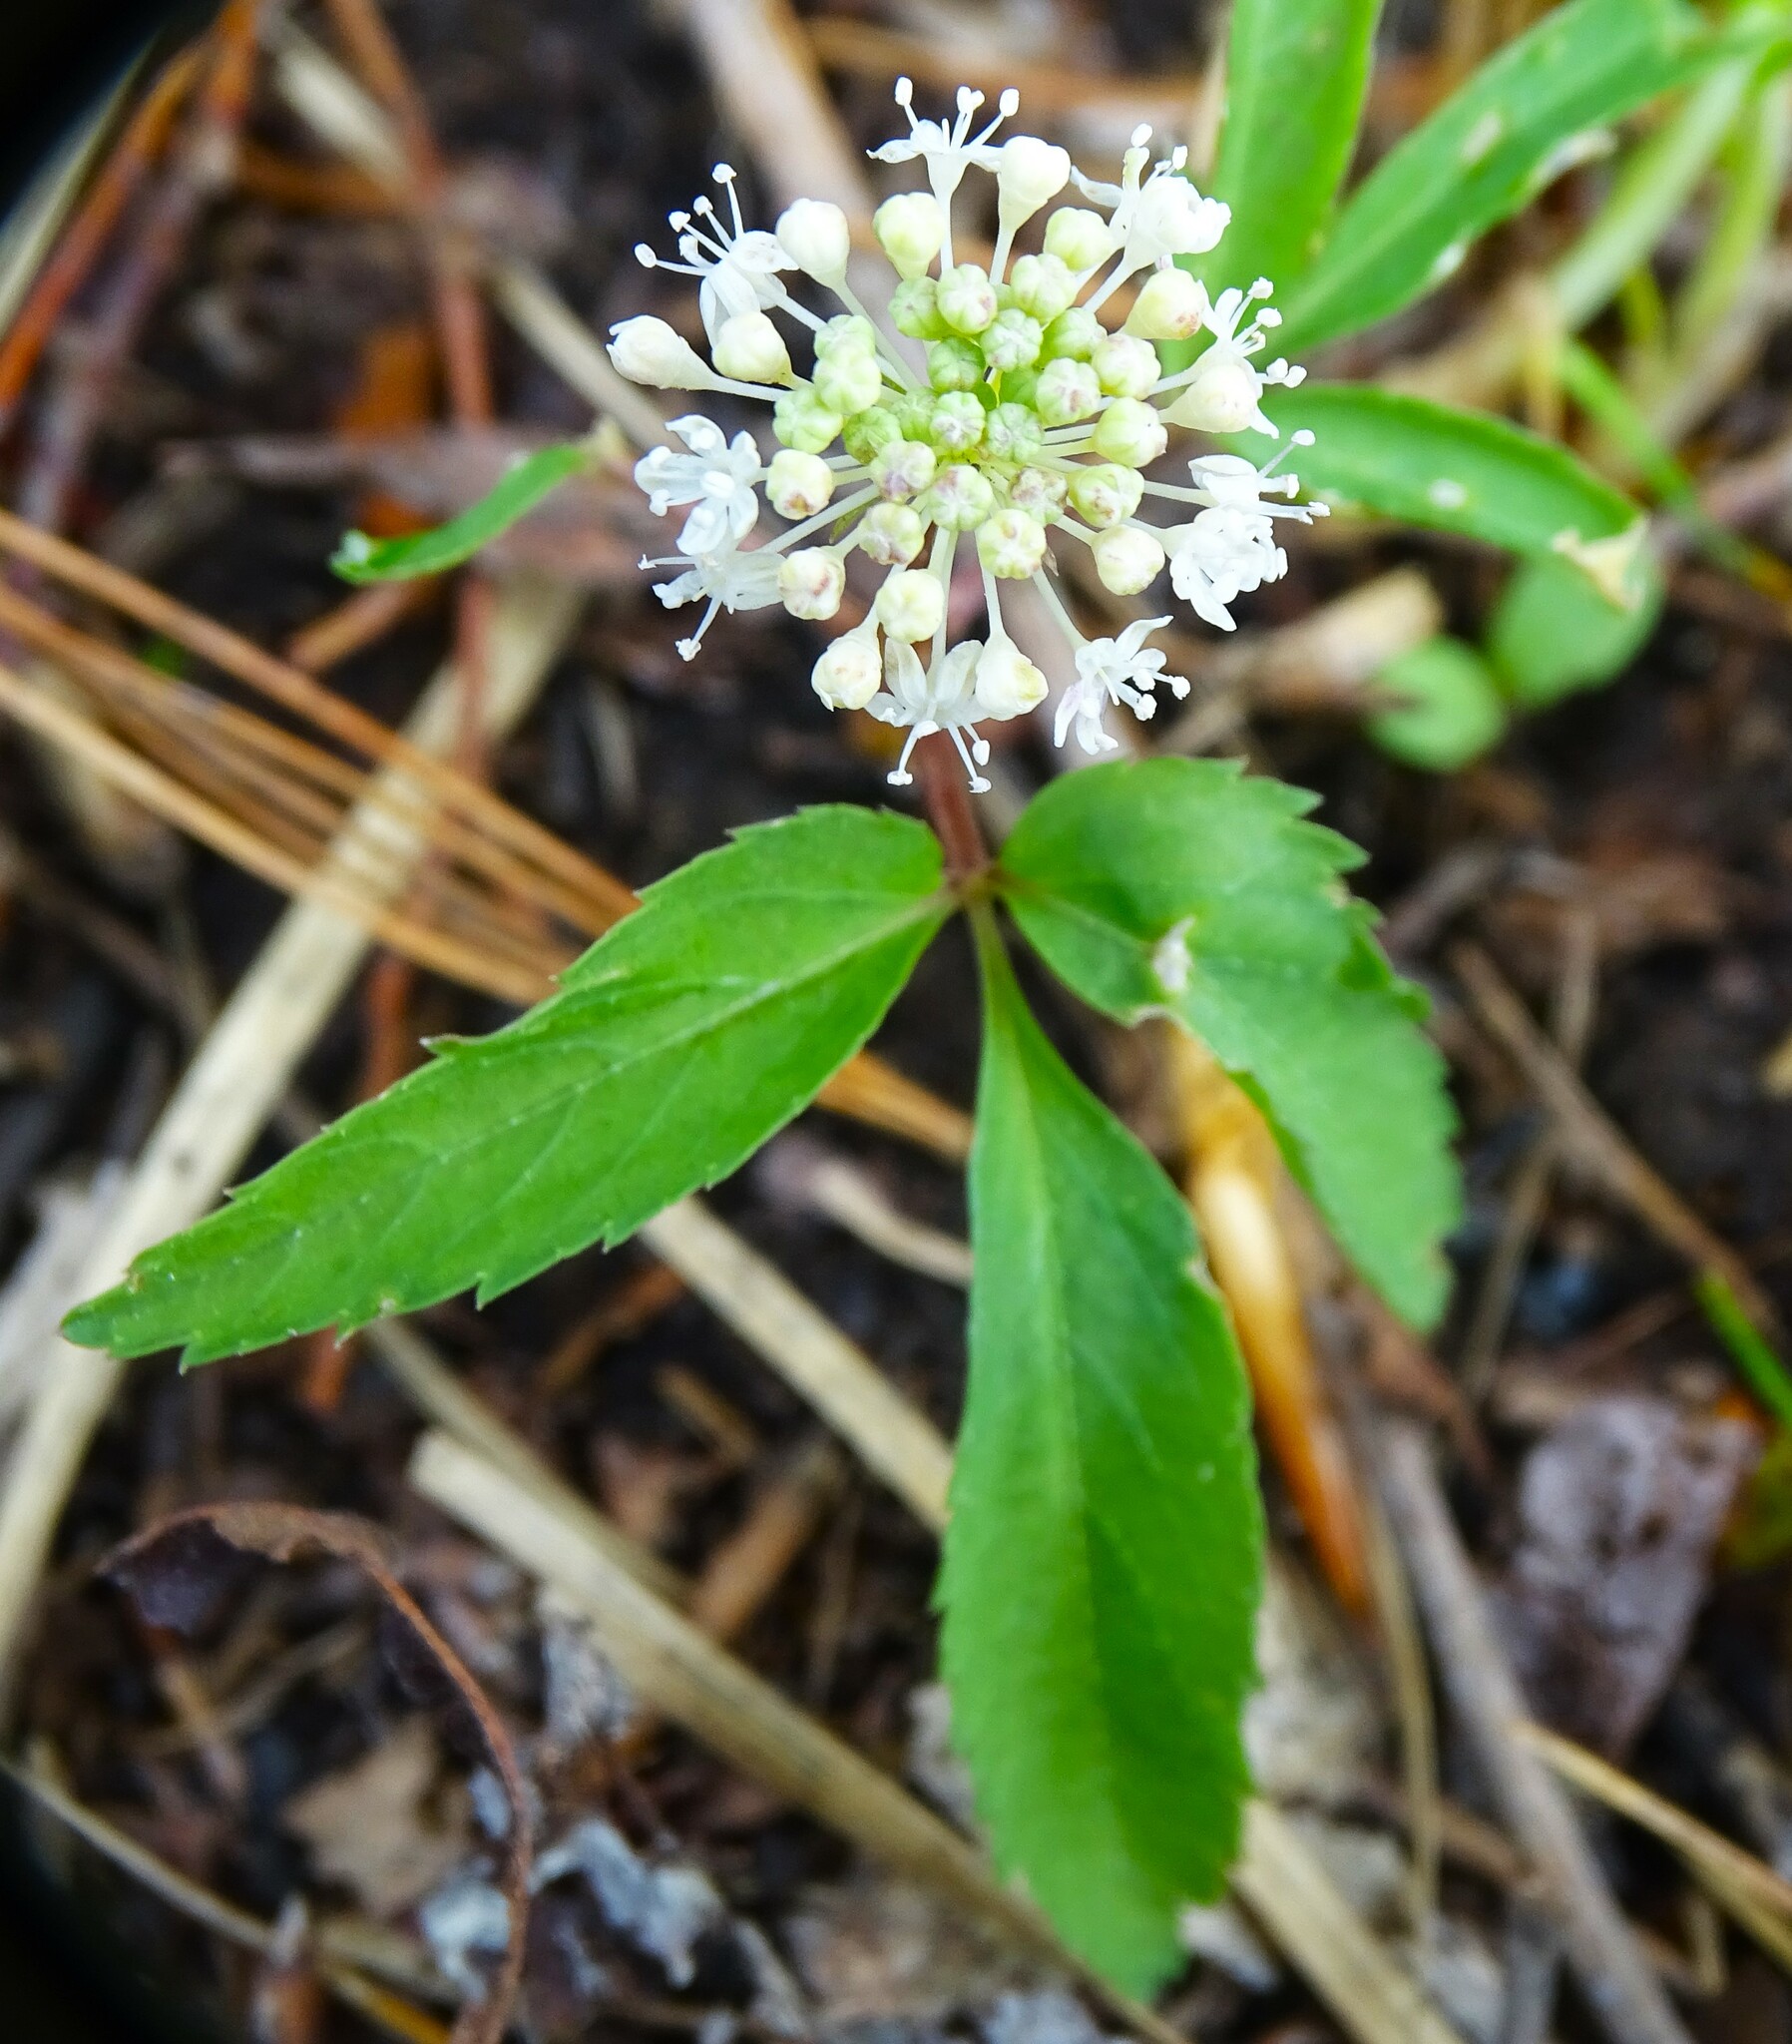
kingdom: Plantae
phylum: Tracheophyta
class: Magnoliopsida
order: Apiales
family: Araliaceae
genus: Panax
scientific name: Panax trifolius
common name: Dwarf ginseng
